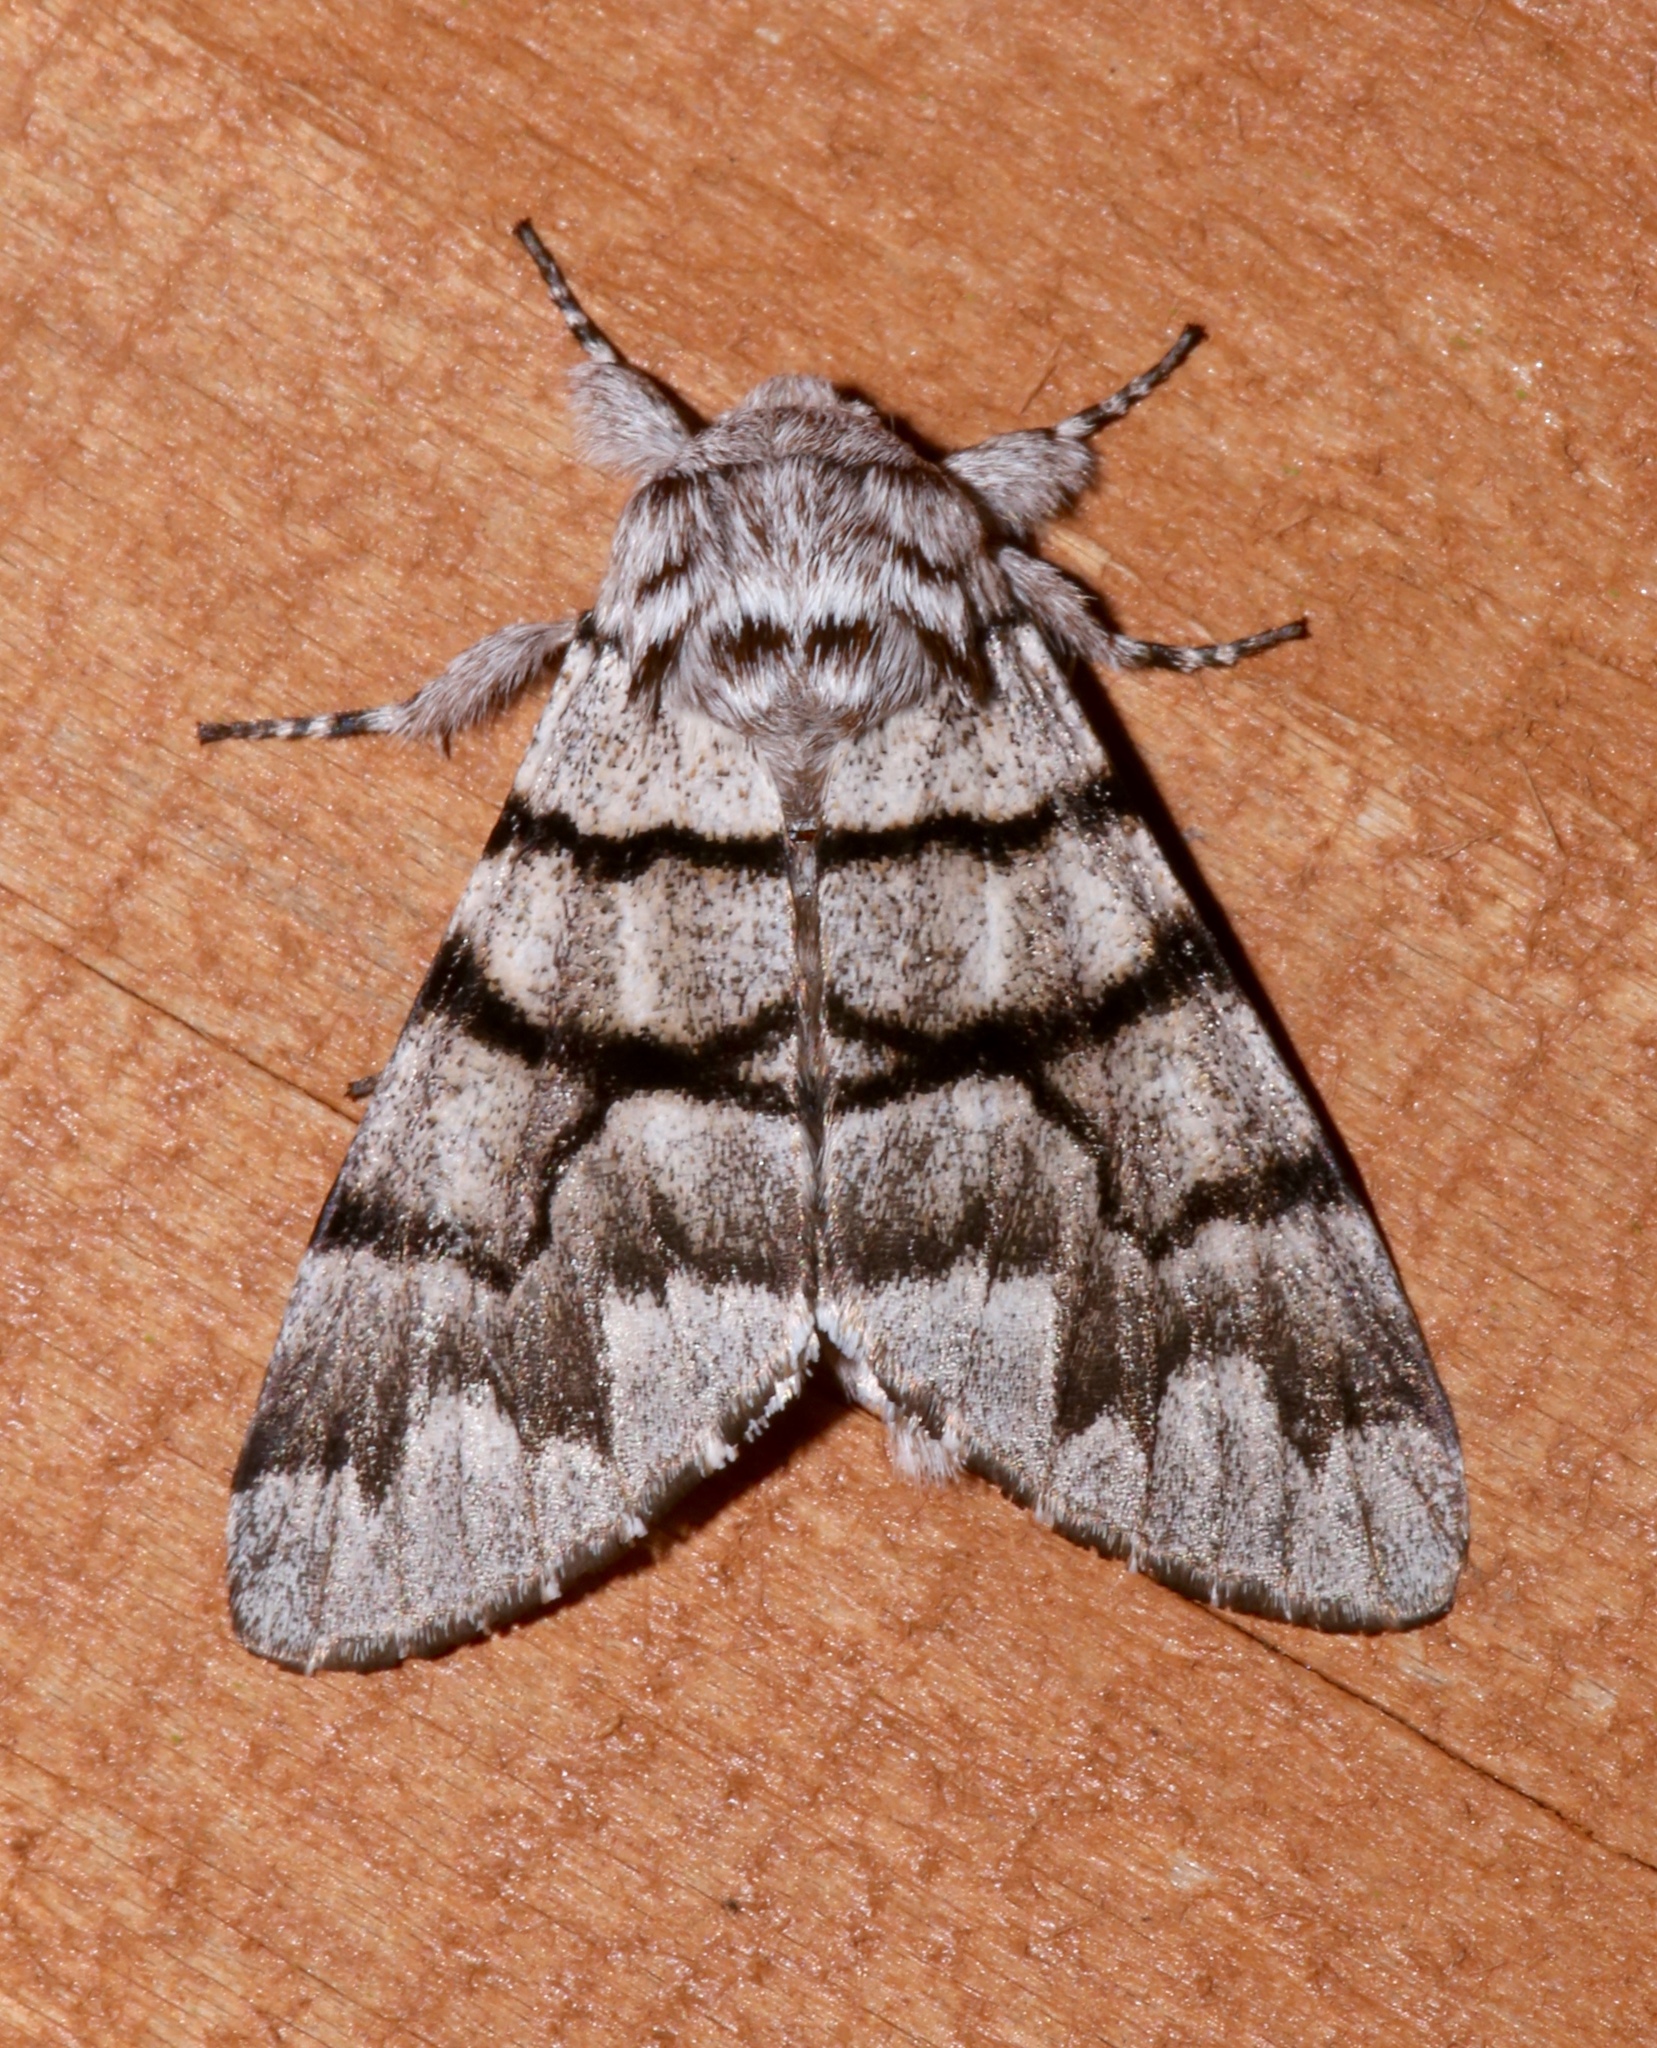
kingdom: Animalia
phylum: Arthropoda
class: Insecta
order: Lepidoptera
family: Noctuidae
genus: Panthea
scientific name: Panthea furcilla
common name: Eastern panthea moth
